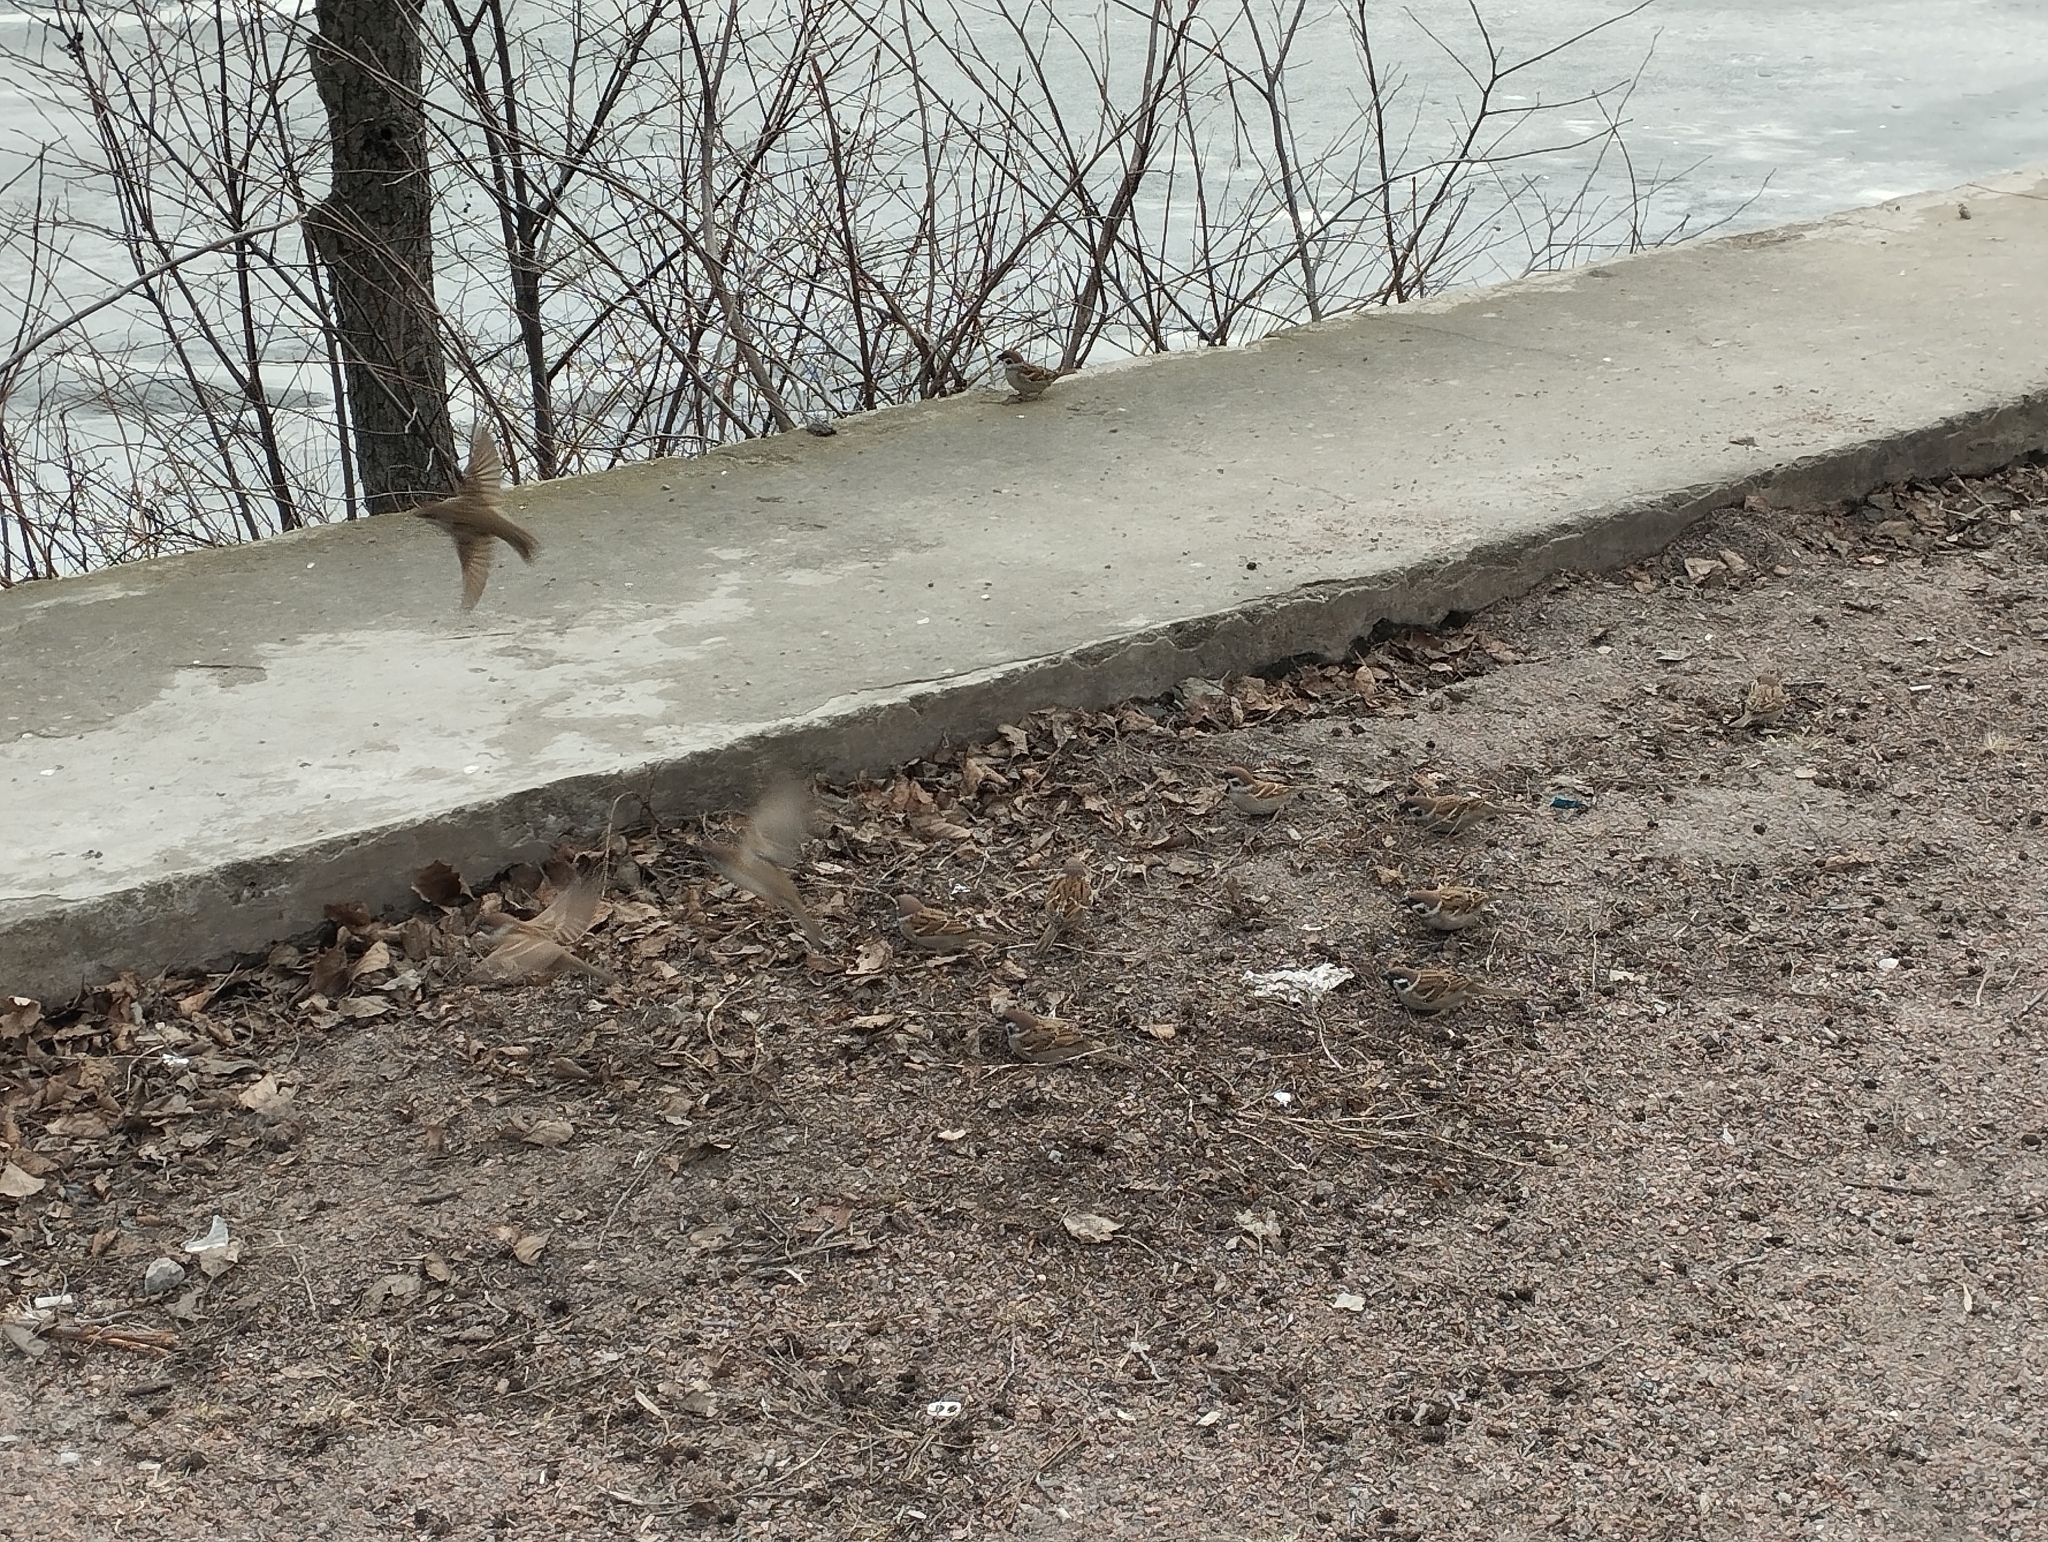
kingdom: Animalia
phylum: Chordata
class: Aves
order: Passeriformes
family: Passeridae
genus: Passer
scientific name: Passer montanus
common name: Eurasian tree sparrow
